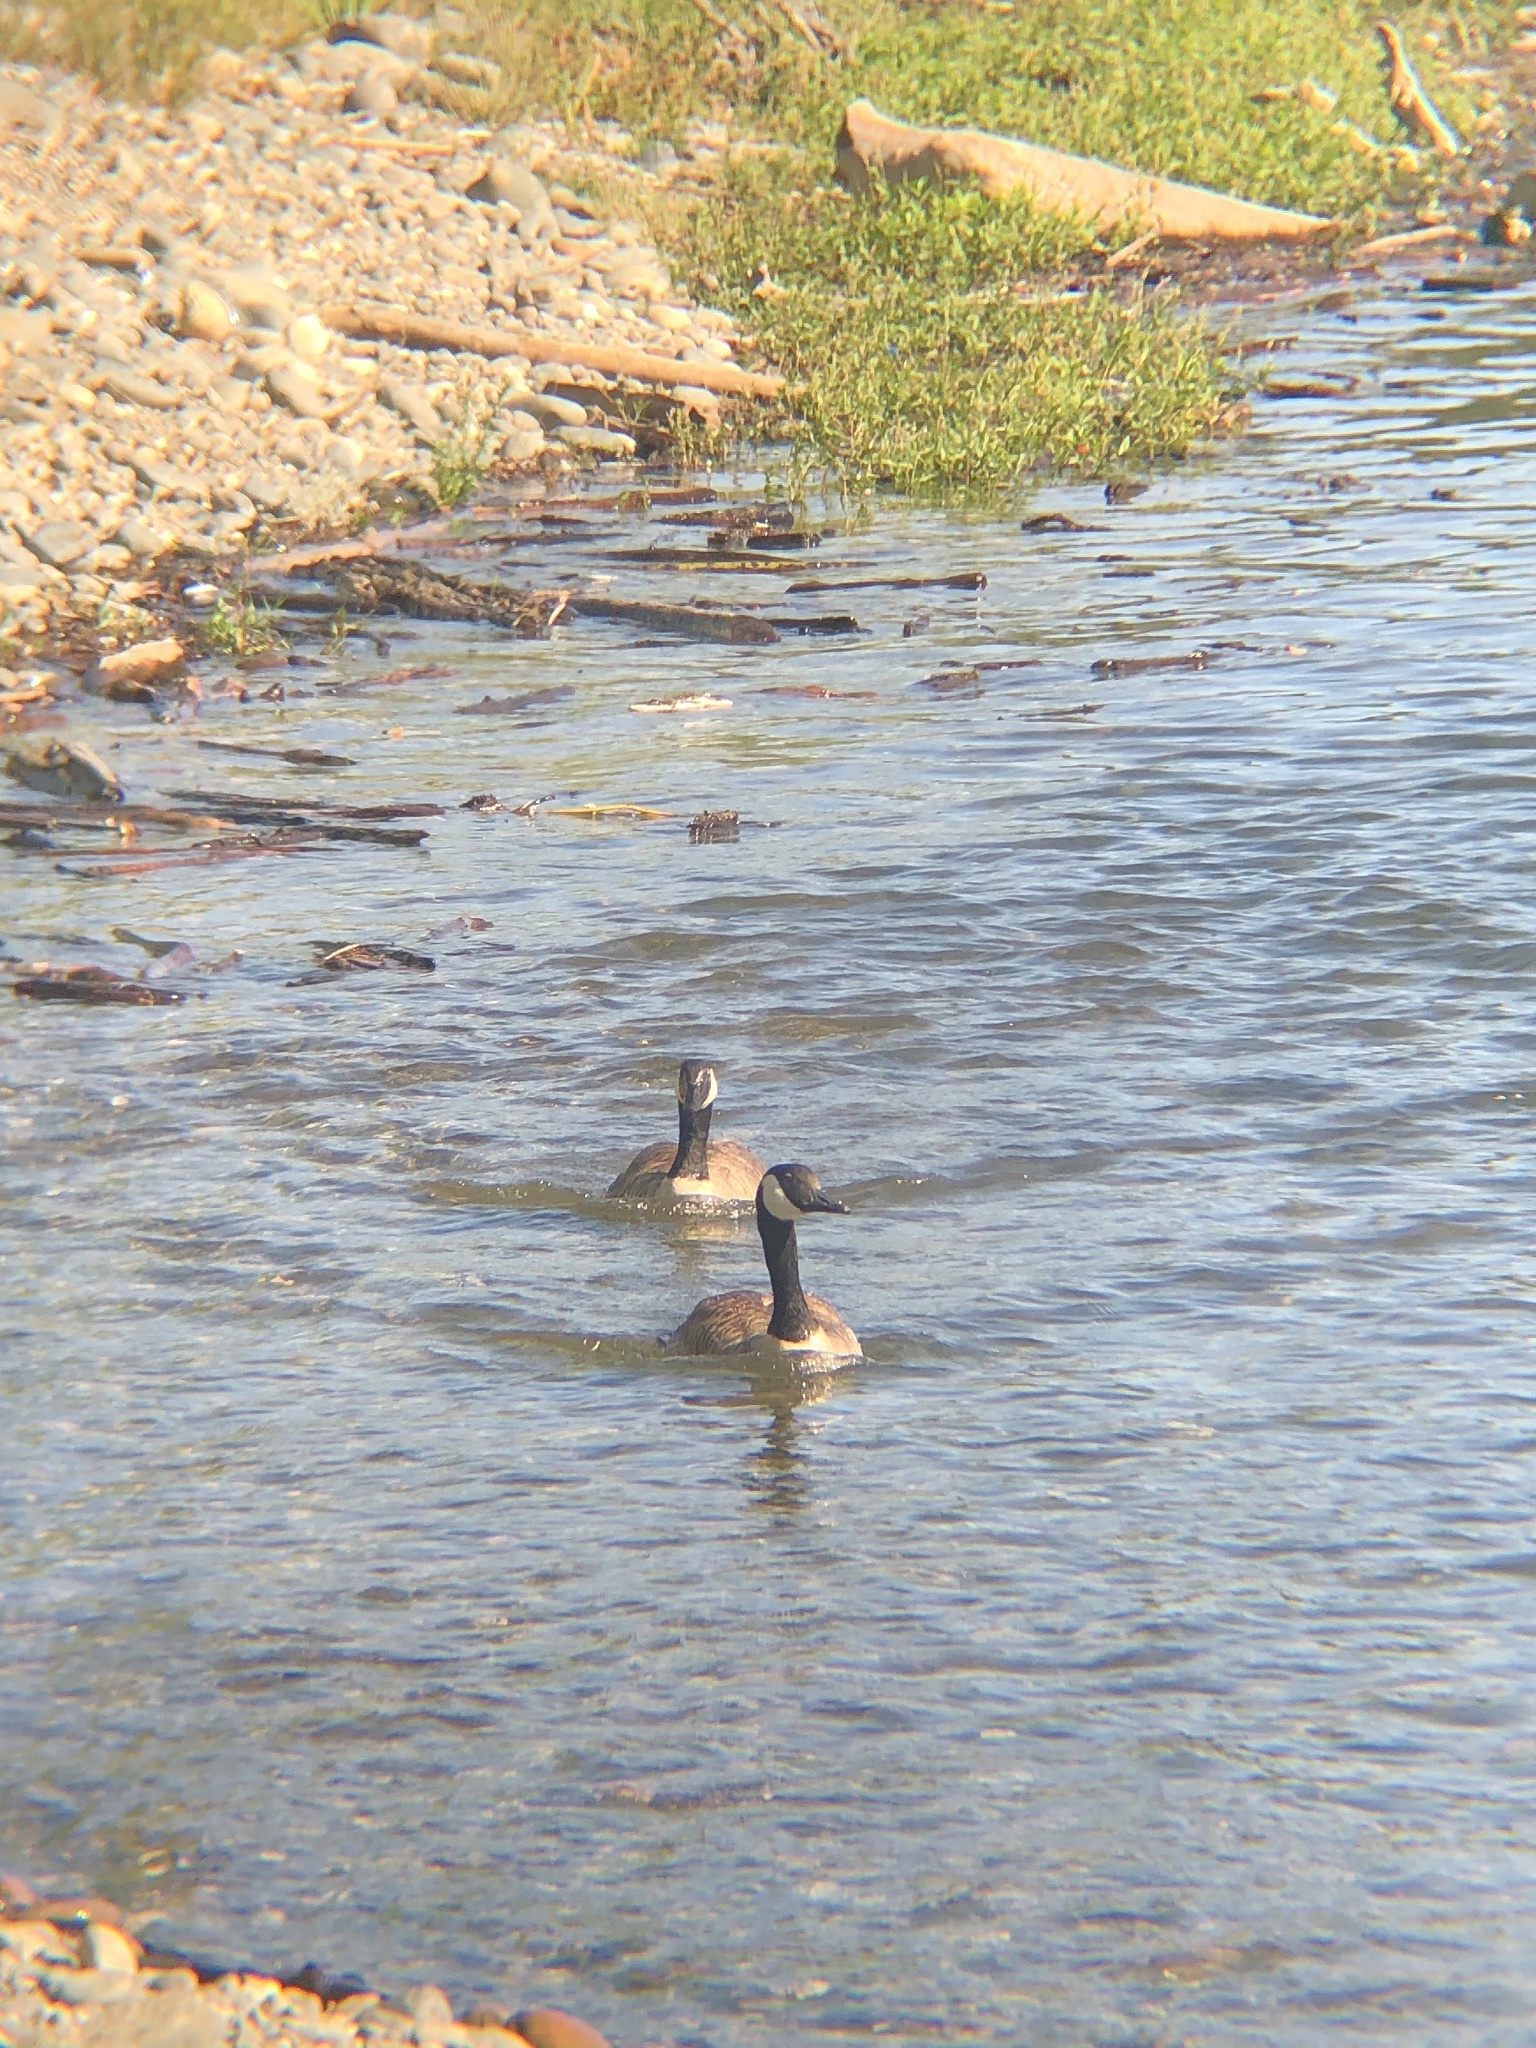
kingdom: Animalia
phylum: Chordata
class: Aves
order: Anseriformes
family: Anatidae
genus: Branta
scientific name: Branta canadensis
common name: Canada goose
